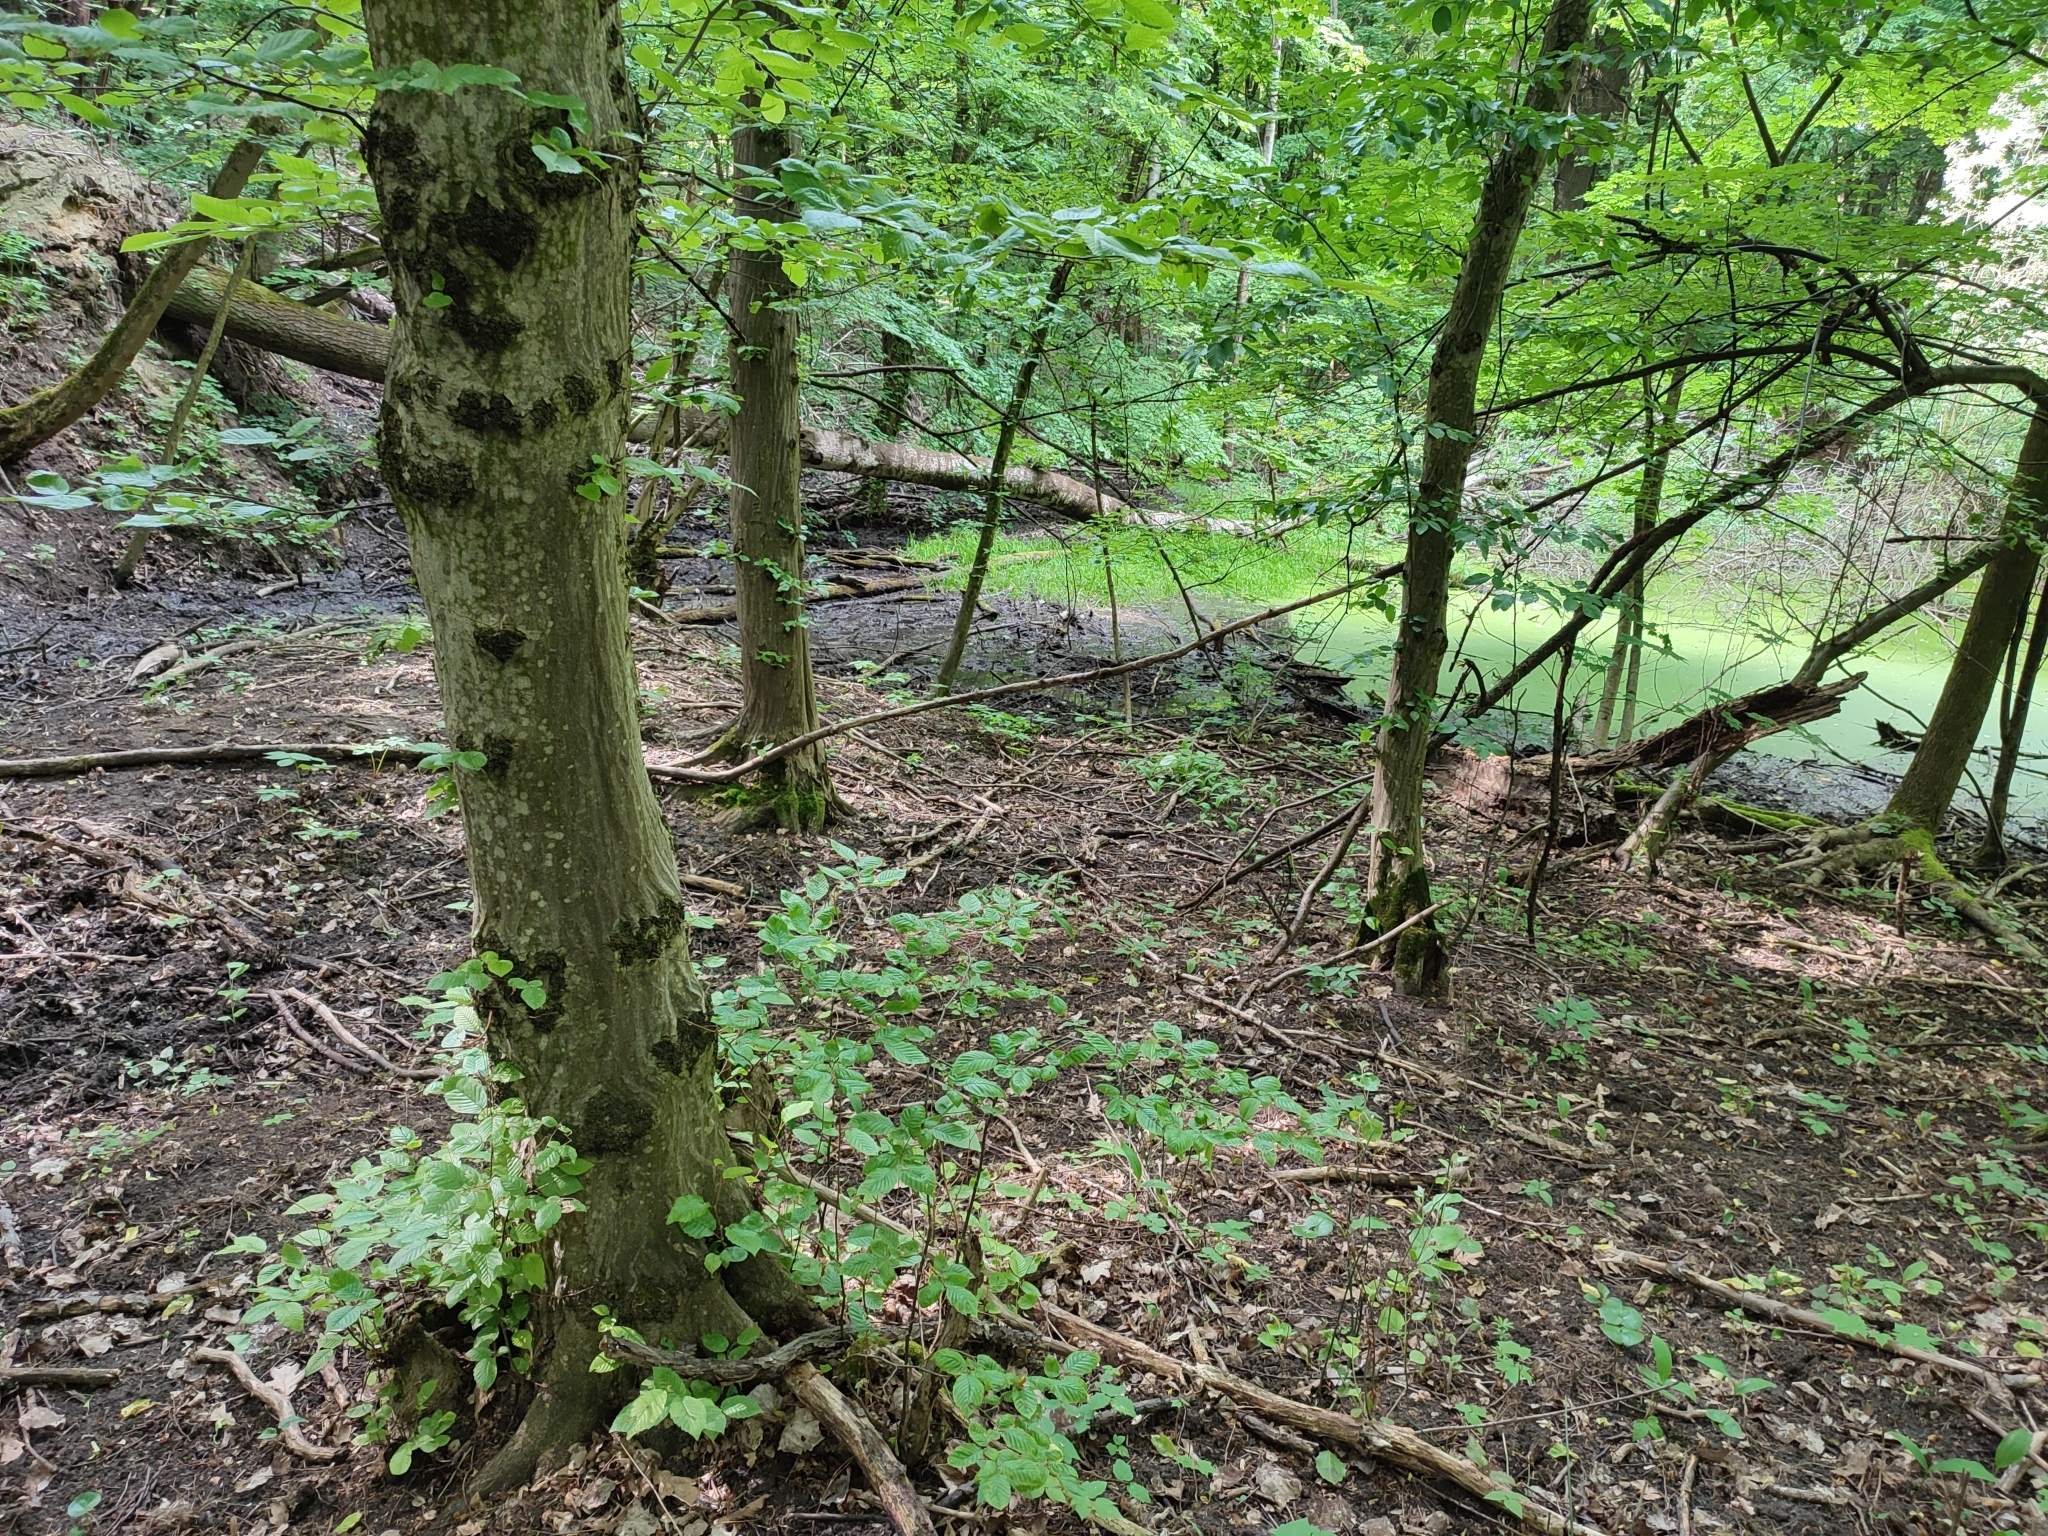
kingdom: Plantae
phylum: Tracheophyta
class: Magnoliopsida
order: Fagales
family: Betulaceae
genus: Carpinus
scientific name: Carpinus betulus
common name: Hornbeam
